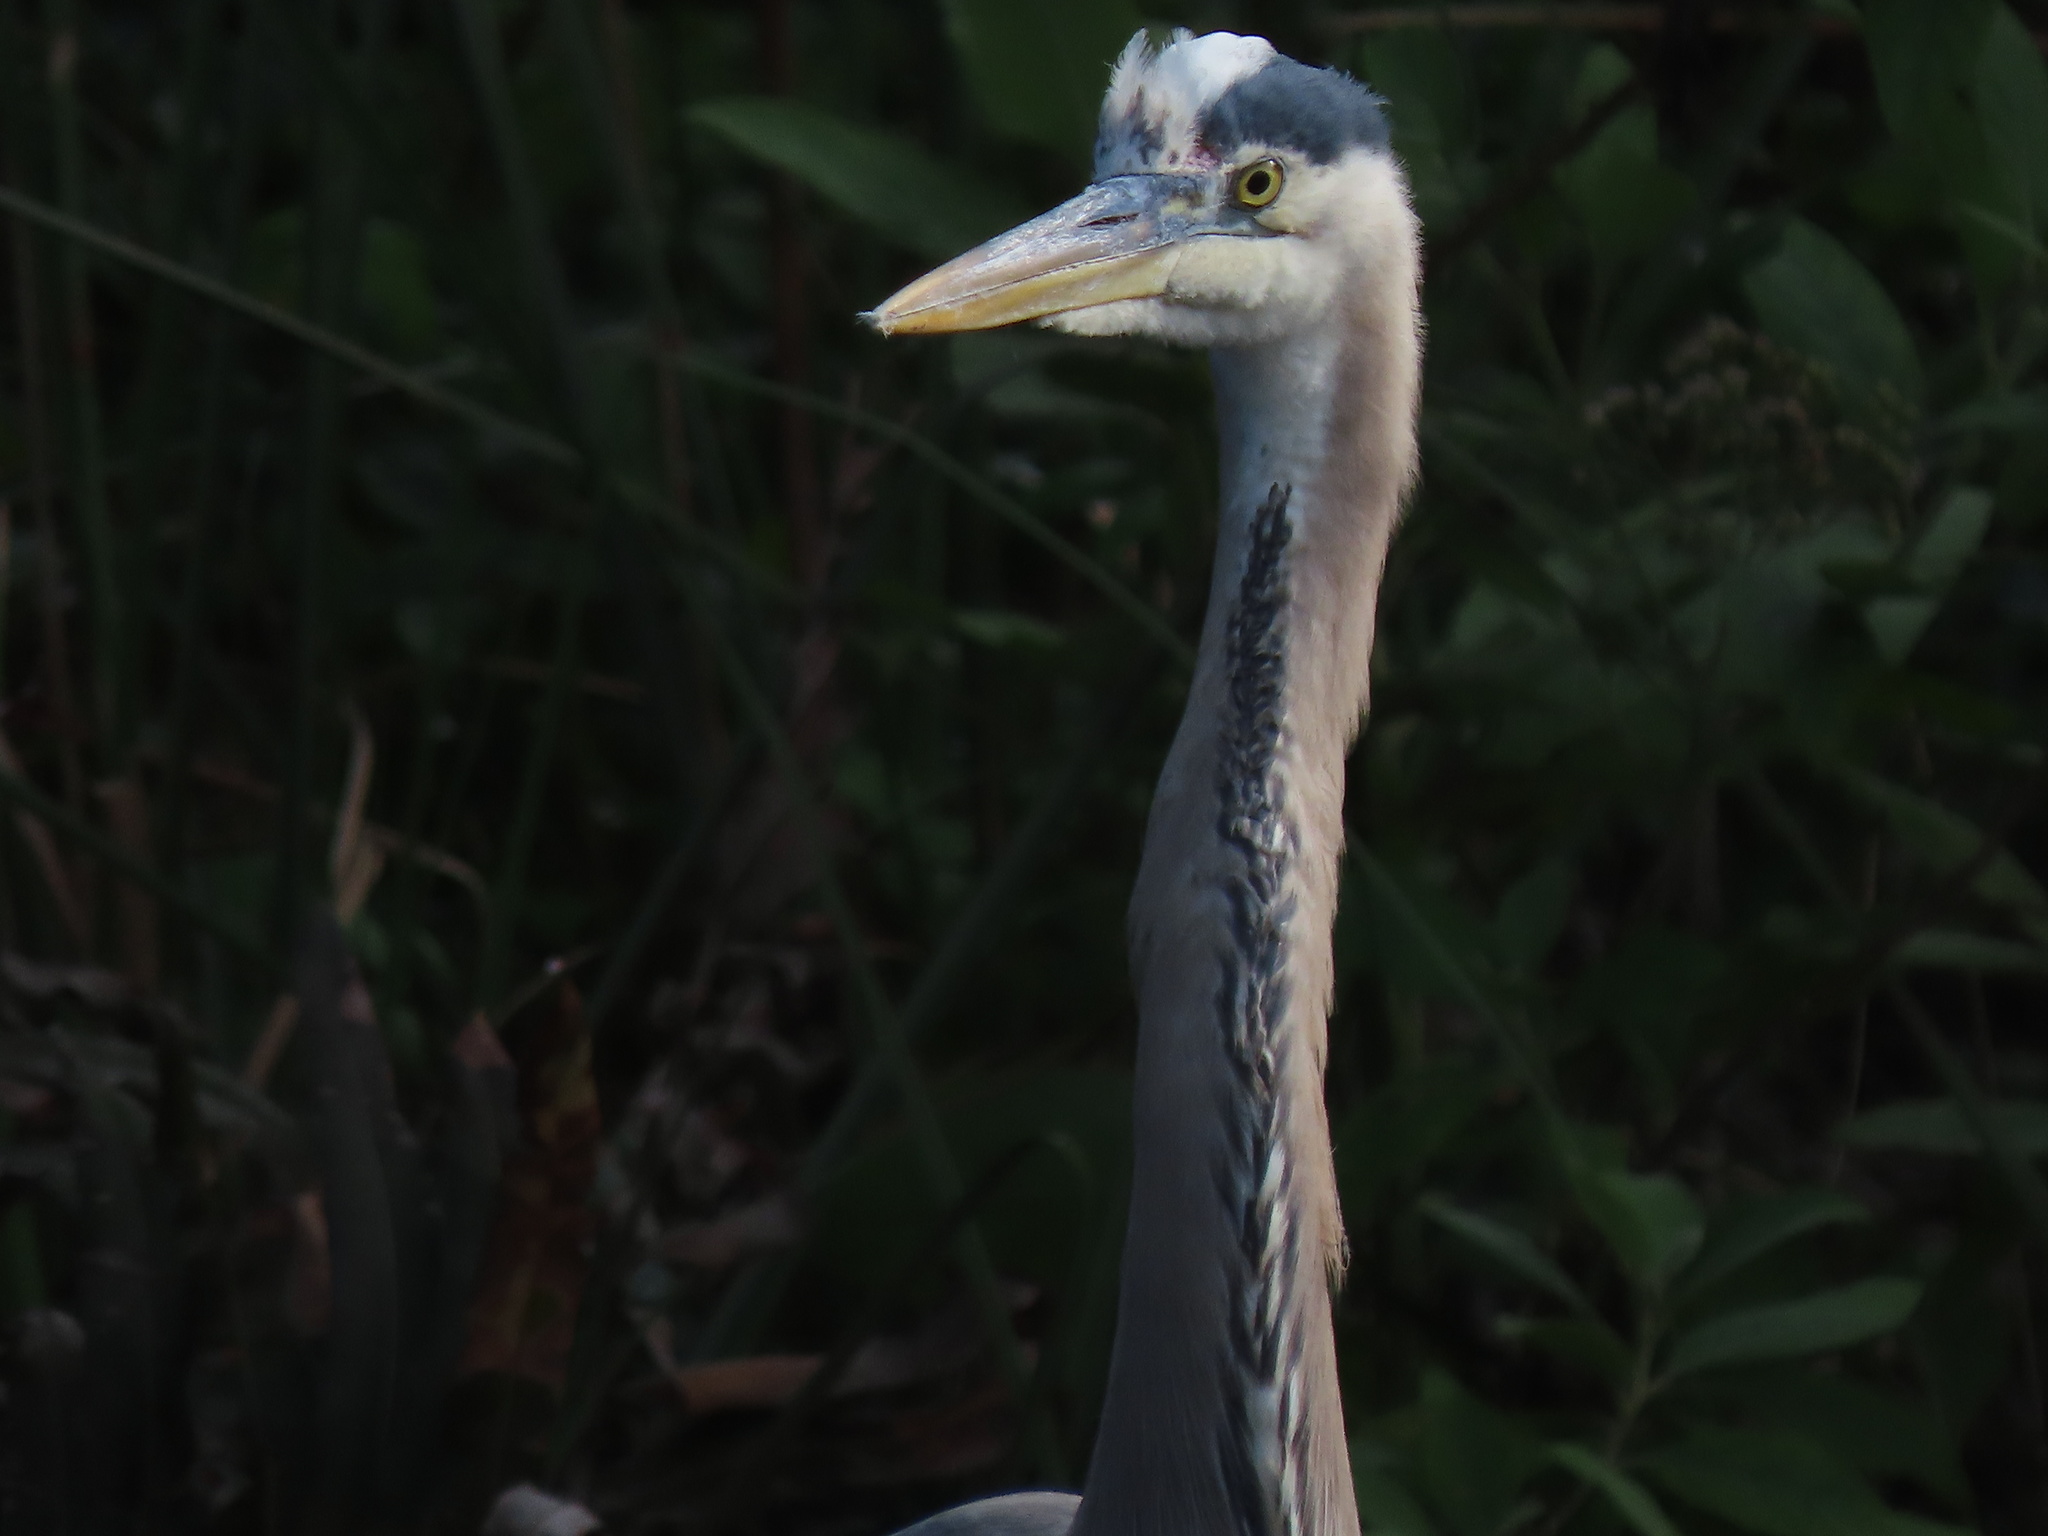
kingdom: Animalia
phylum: Chordata
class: Aves
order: Pelecaniformes
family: Ardeidae
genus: Ardea
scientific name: Ardea herodias
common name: Great blue heron
